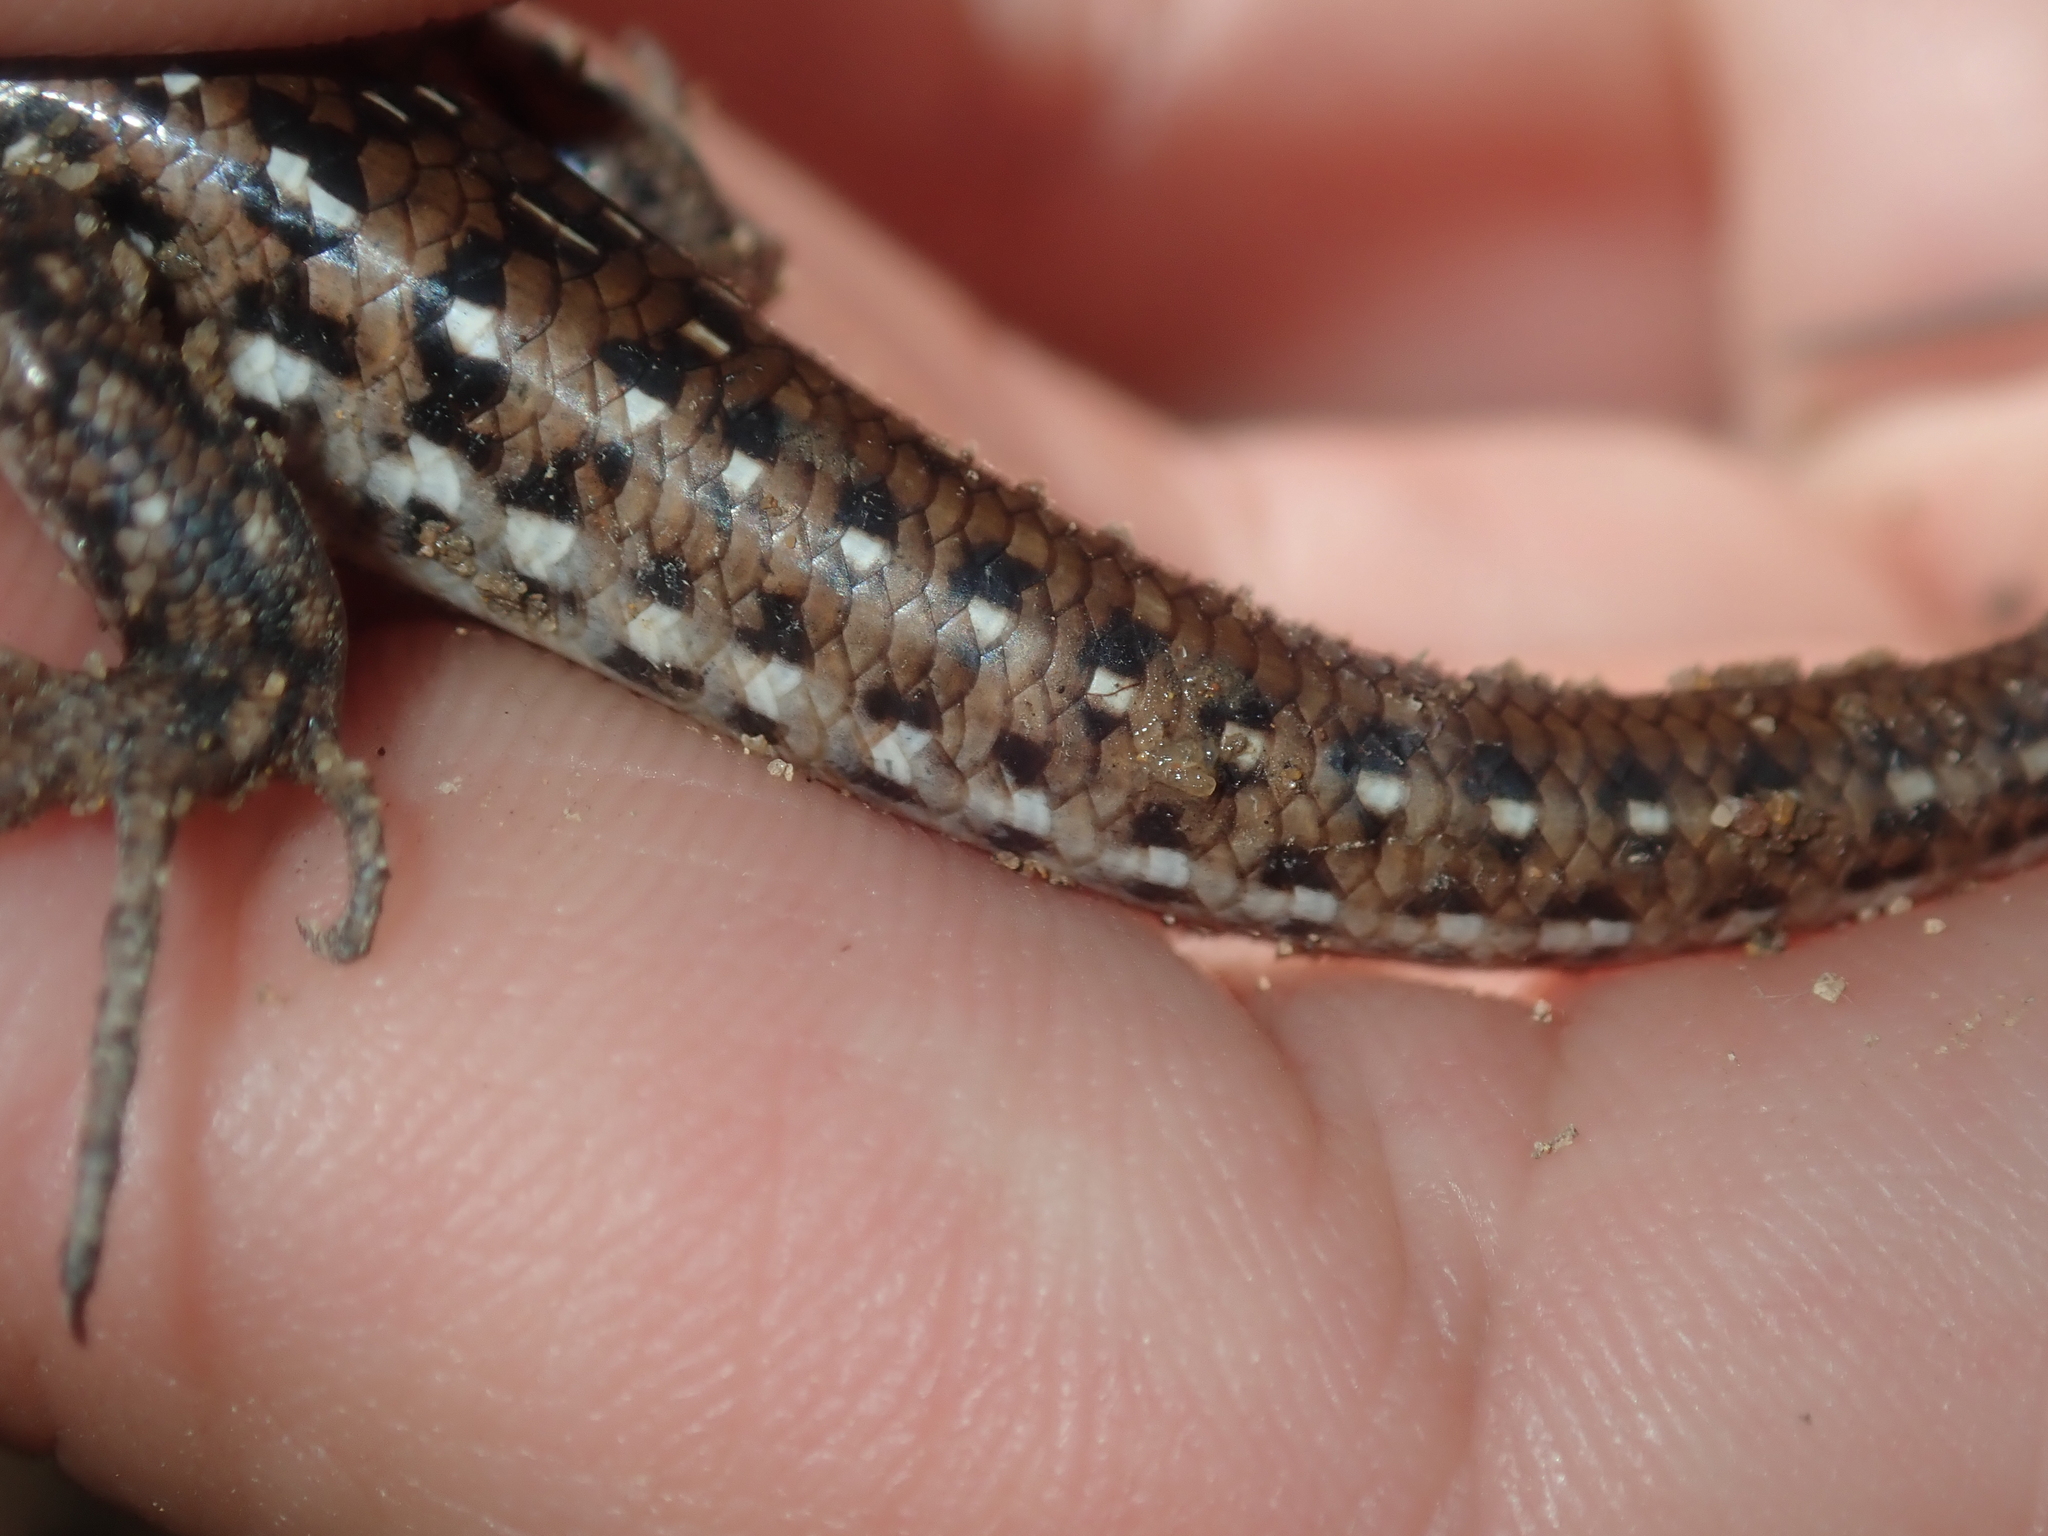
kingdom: Animalia
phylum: Chordata
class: Squamata
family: Scincidae
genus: Ctenotus
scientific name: Ctenotus pantherinus
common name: Leopard ctenotus
